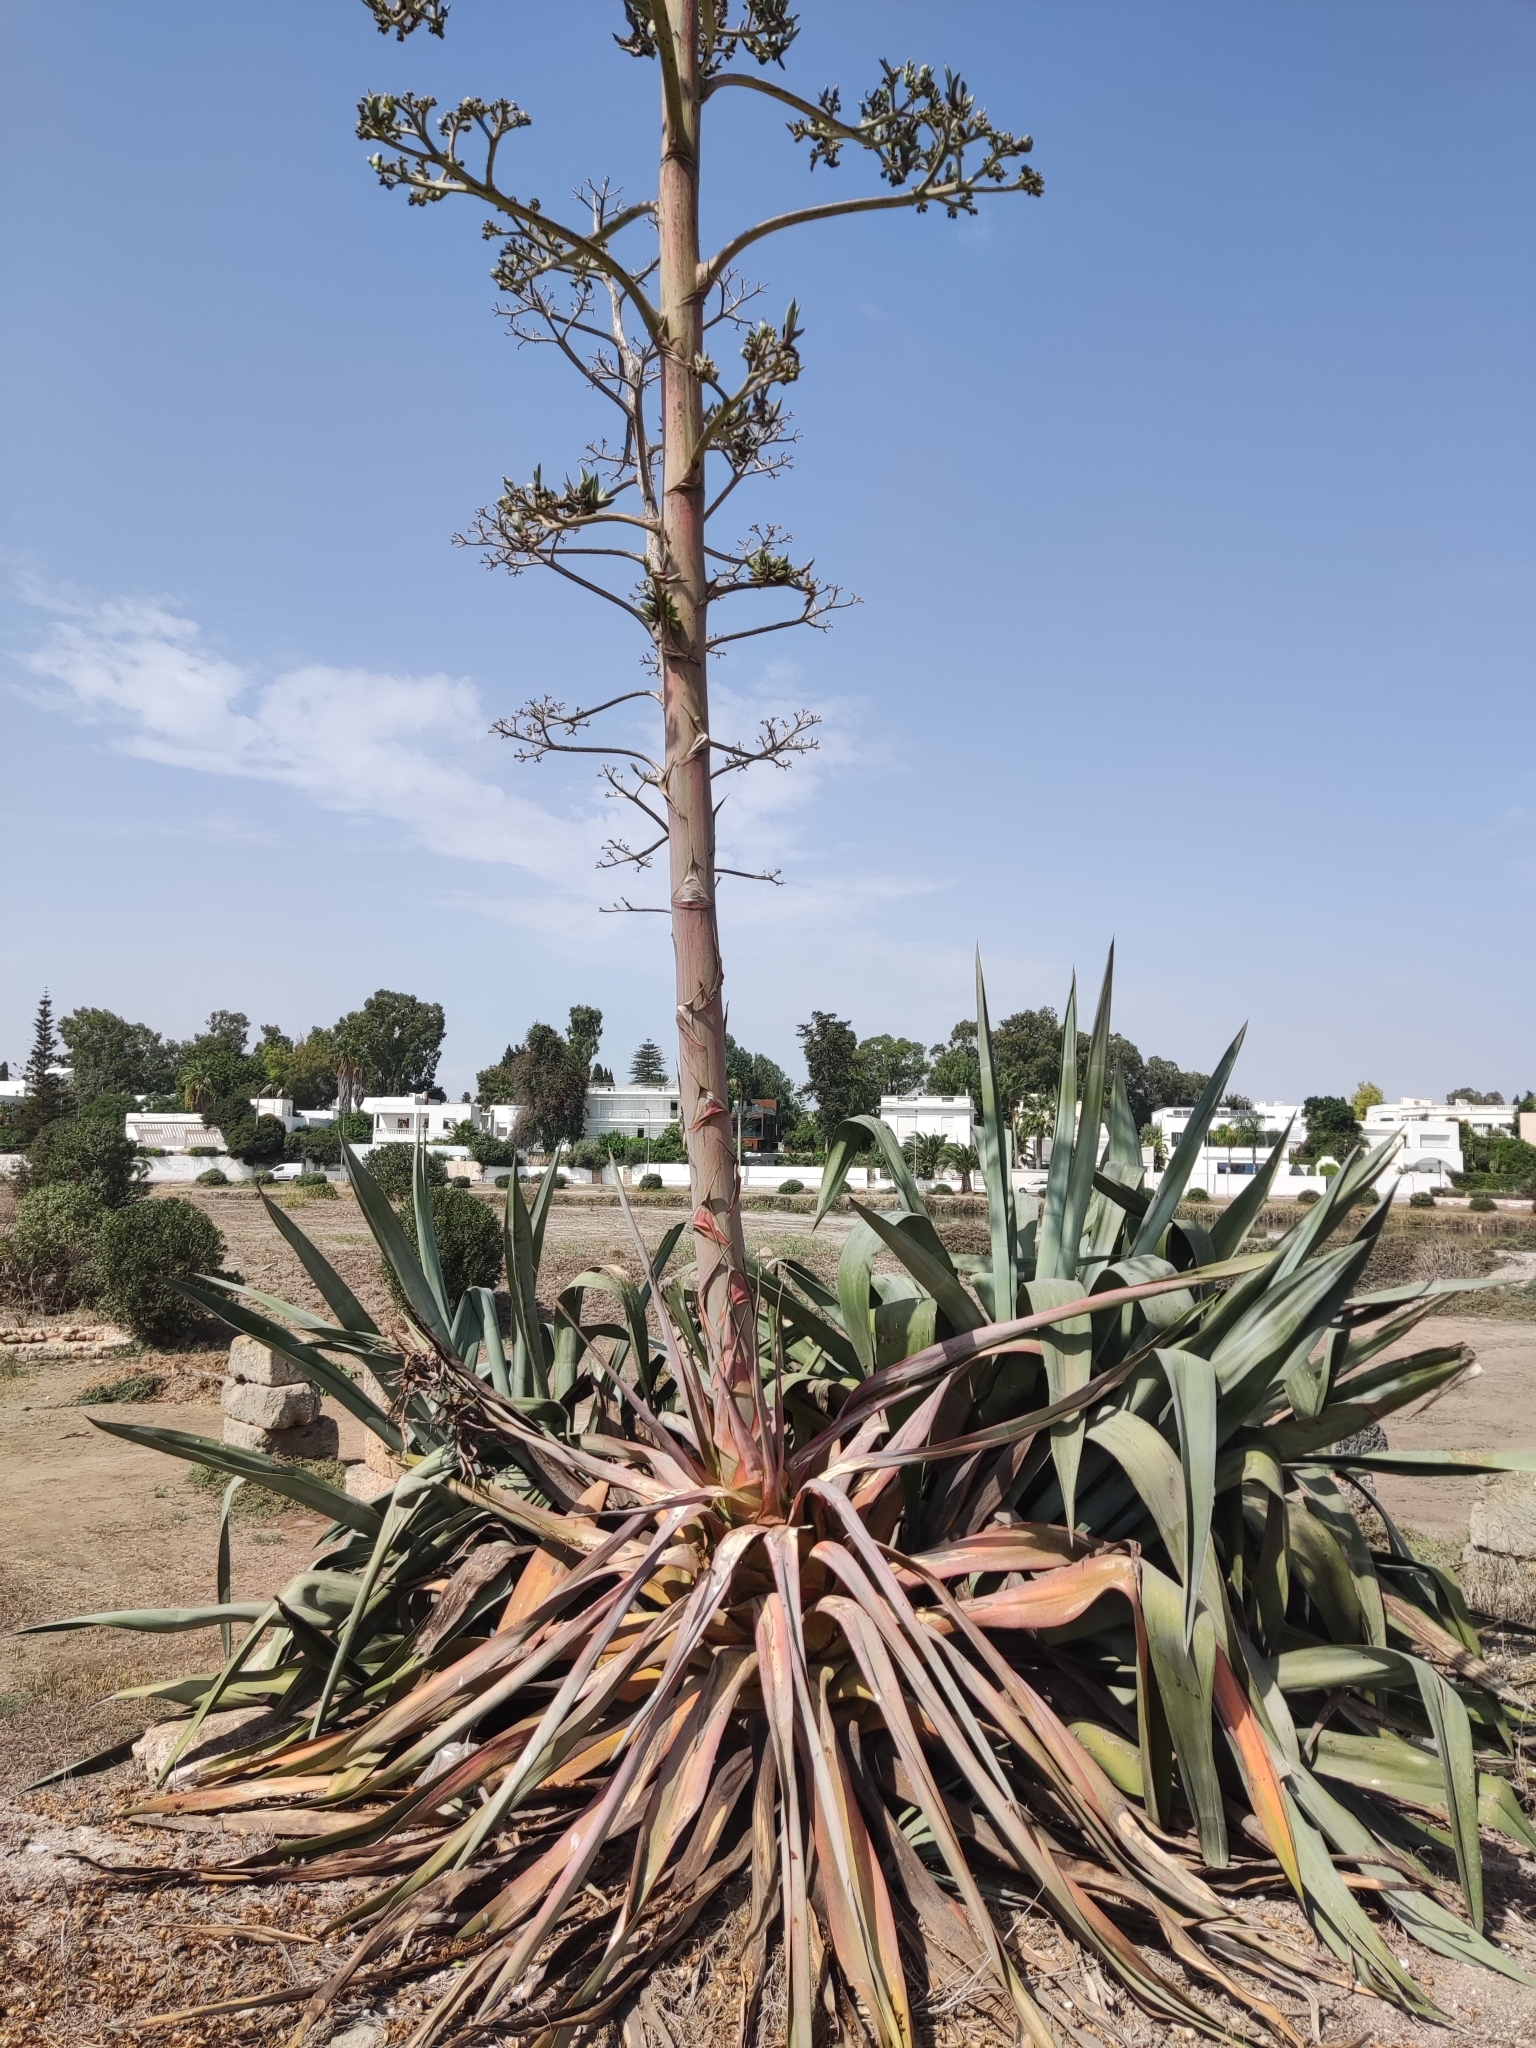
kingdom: Plantae
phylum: Tracheophyta
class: Liliopsida
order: Asparagales
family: Asparagaceae
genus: Agave
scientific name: Agave americana
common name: Centuryplant
